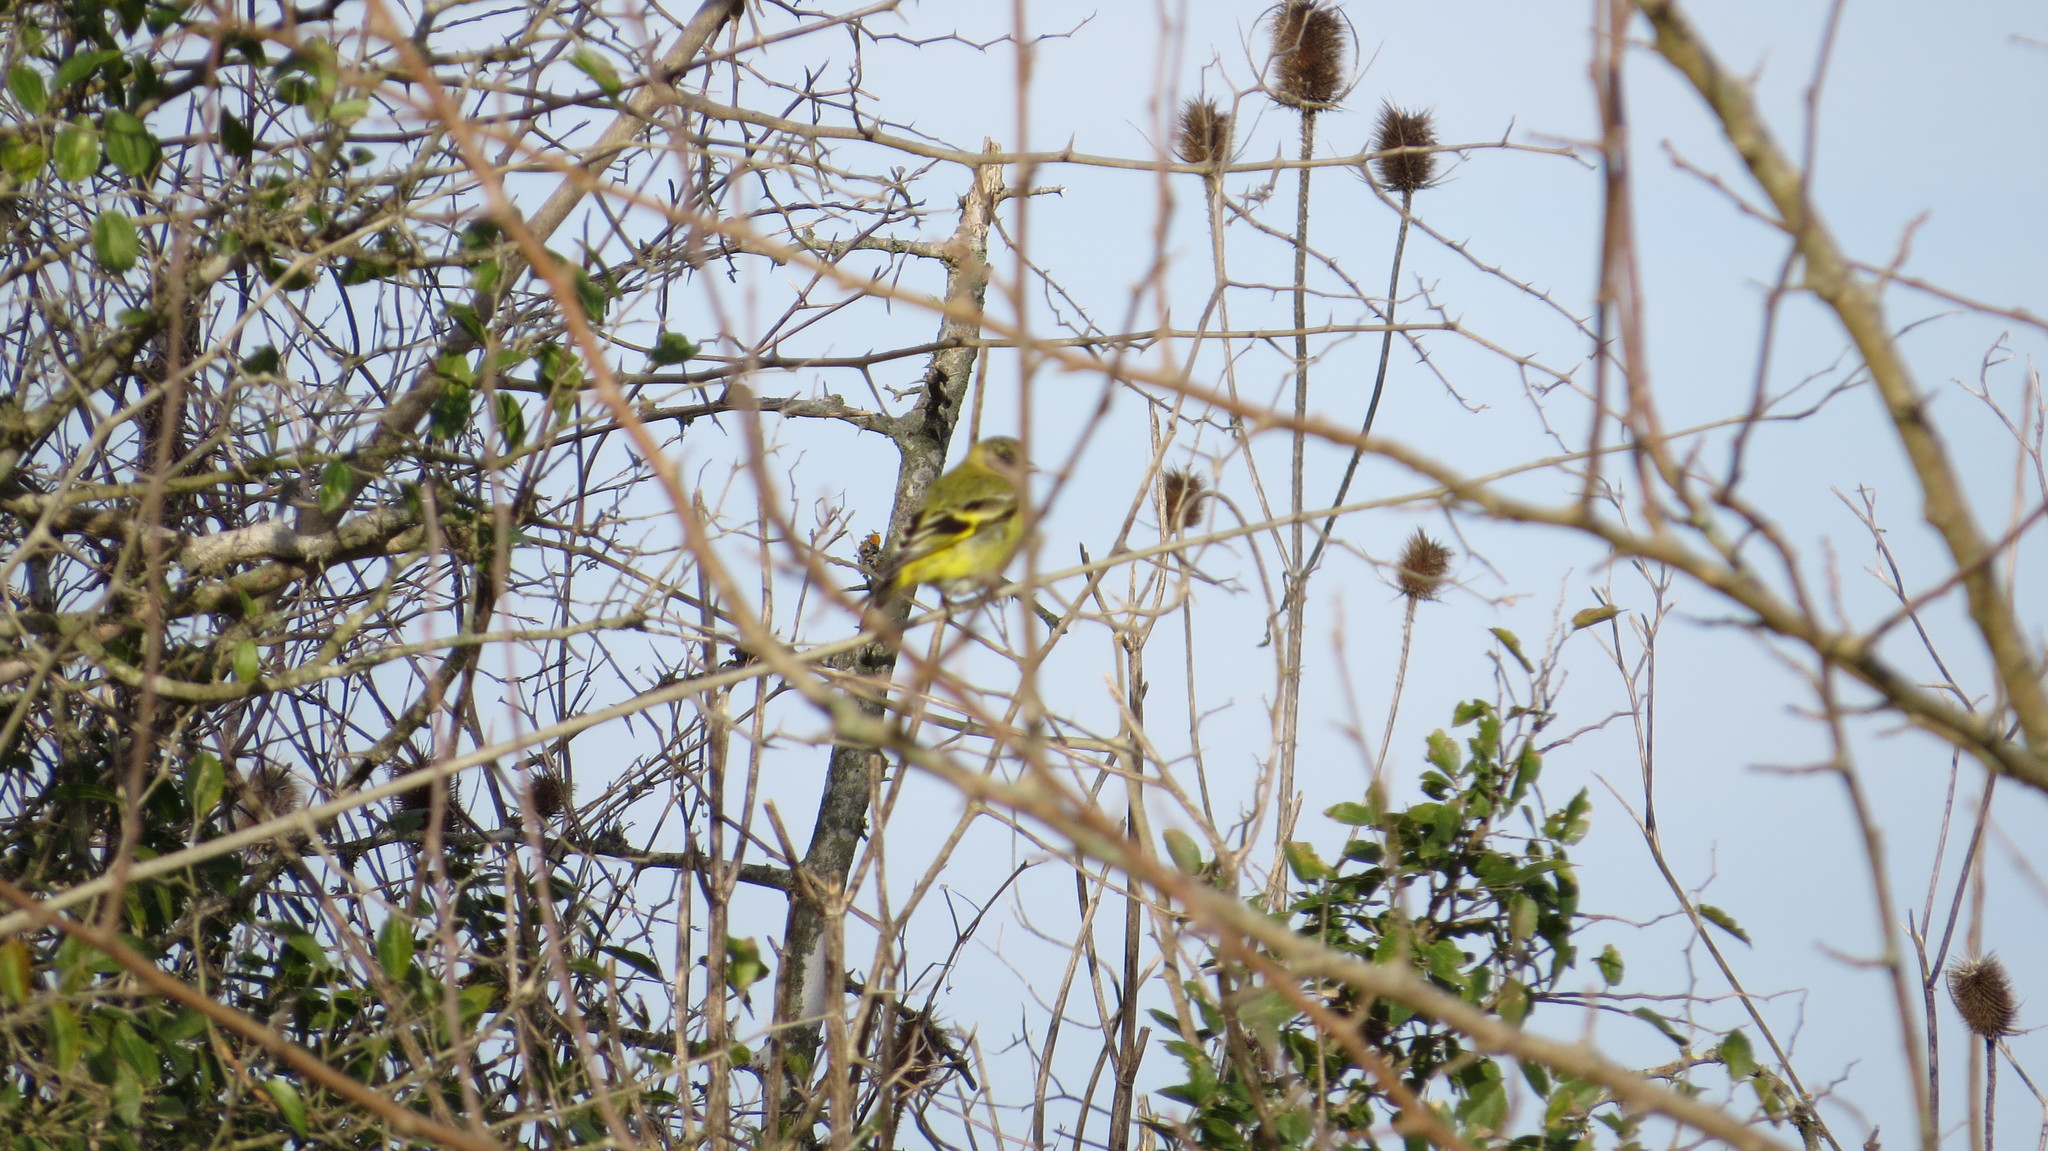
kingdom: Animalia
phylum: Chordata
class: Aves
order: Passeriformes
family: Fringillidae
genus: Spinus
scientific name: Spinus magellanicus
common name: Hooded siskin
